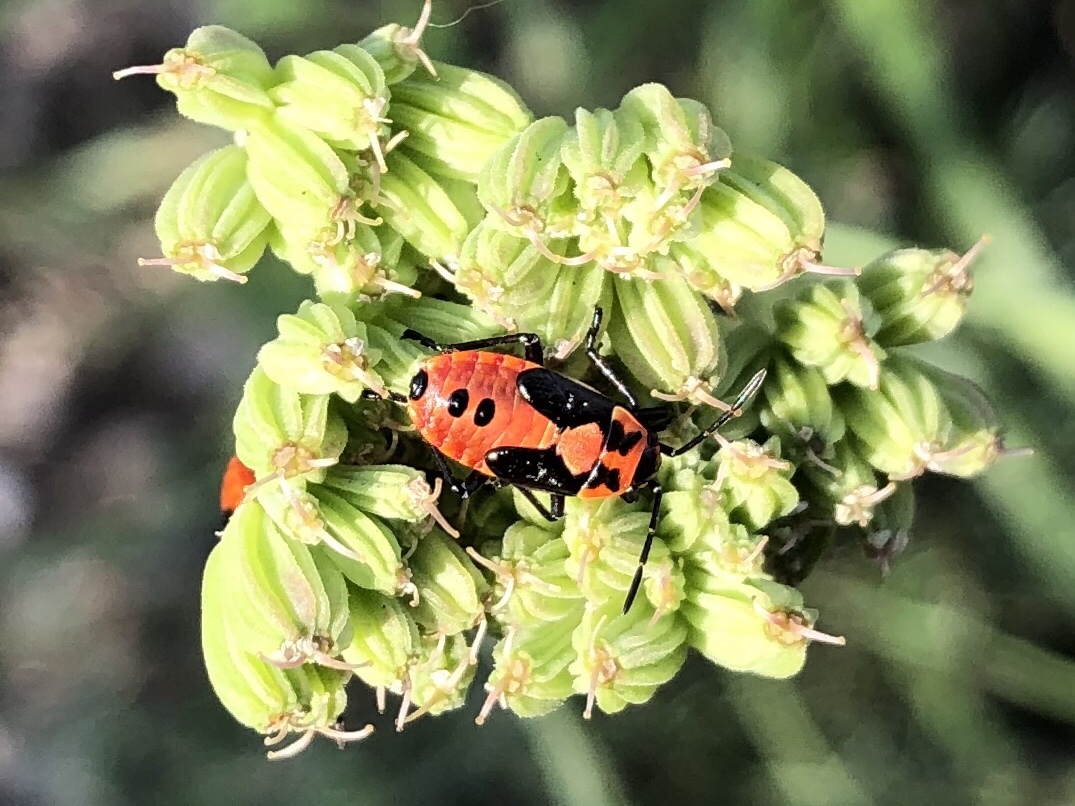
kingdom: Animalia
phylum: Arthropoda
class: Insecta
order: Hemiptera
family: Lygaeidae
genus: Lygaeus
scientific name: Lygaeus equestris
